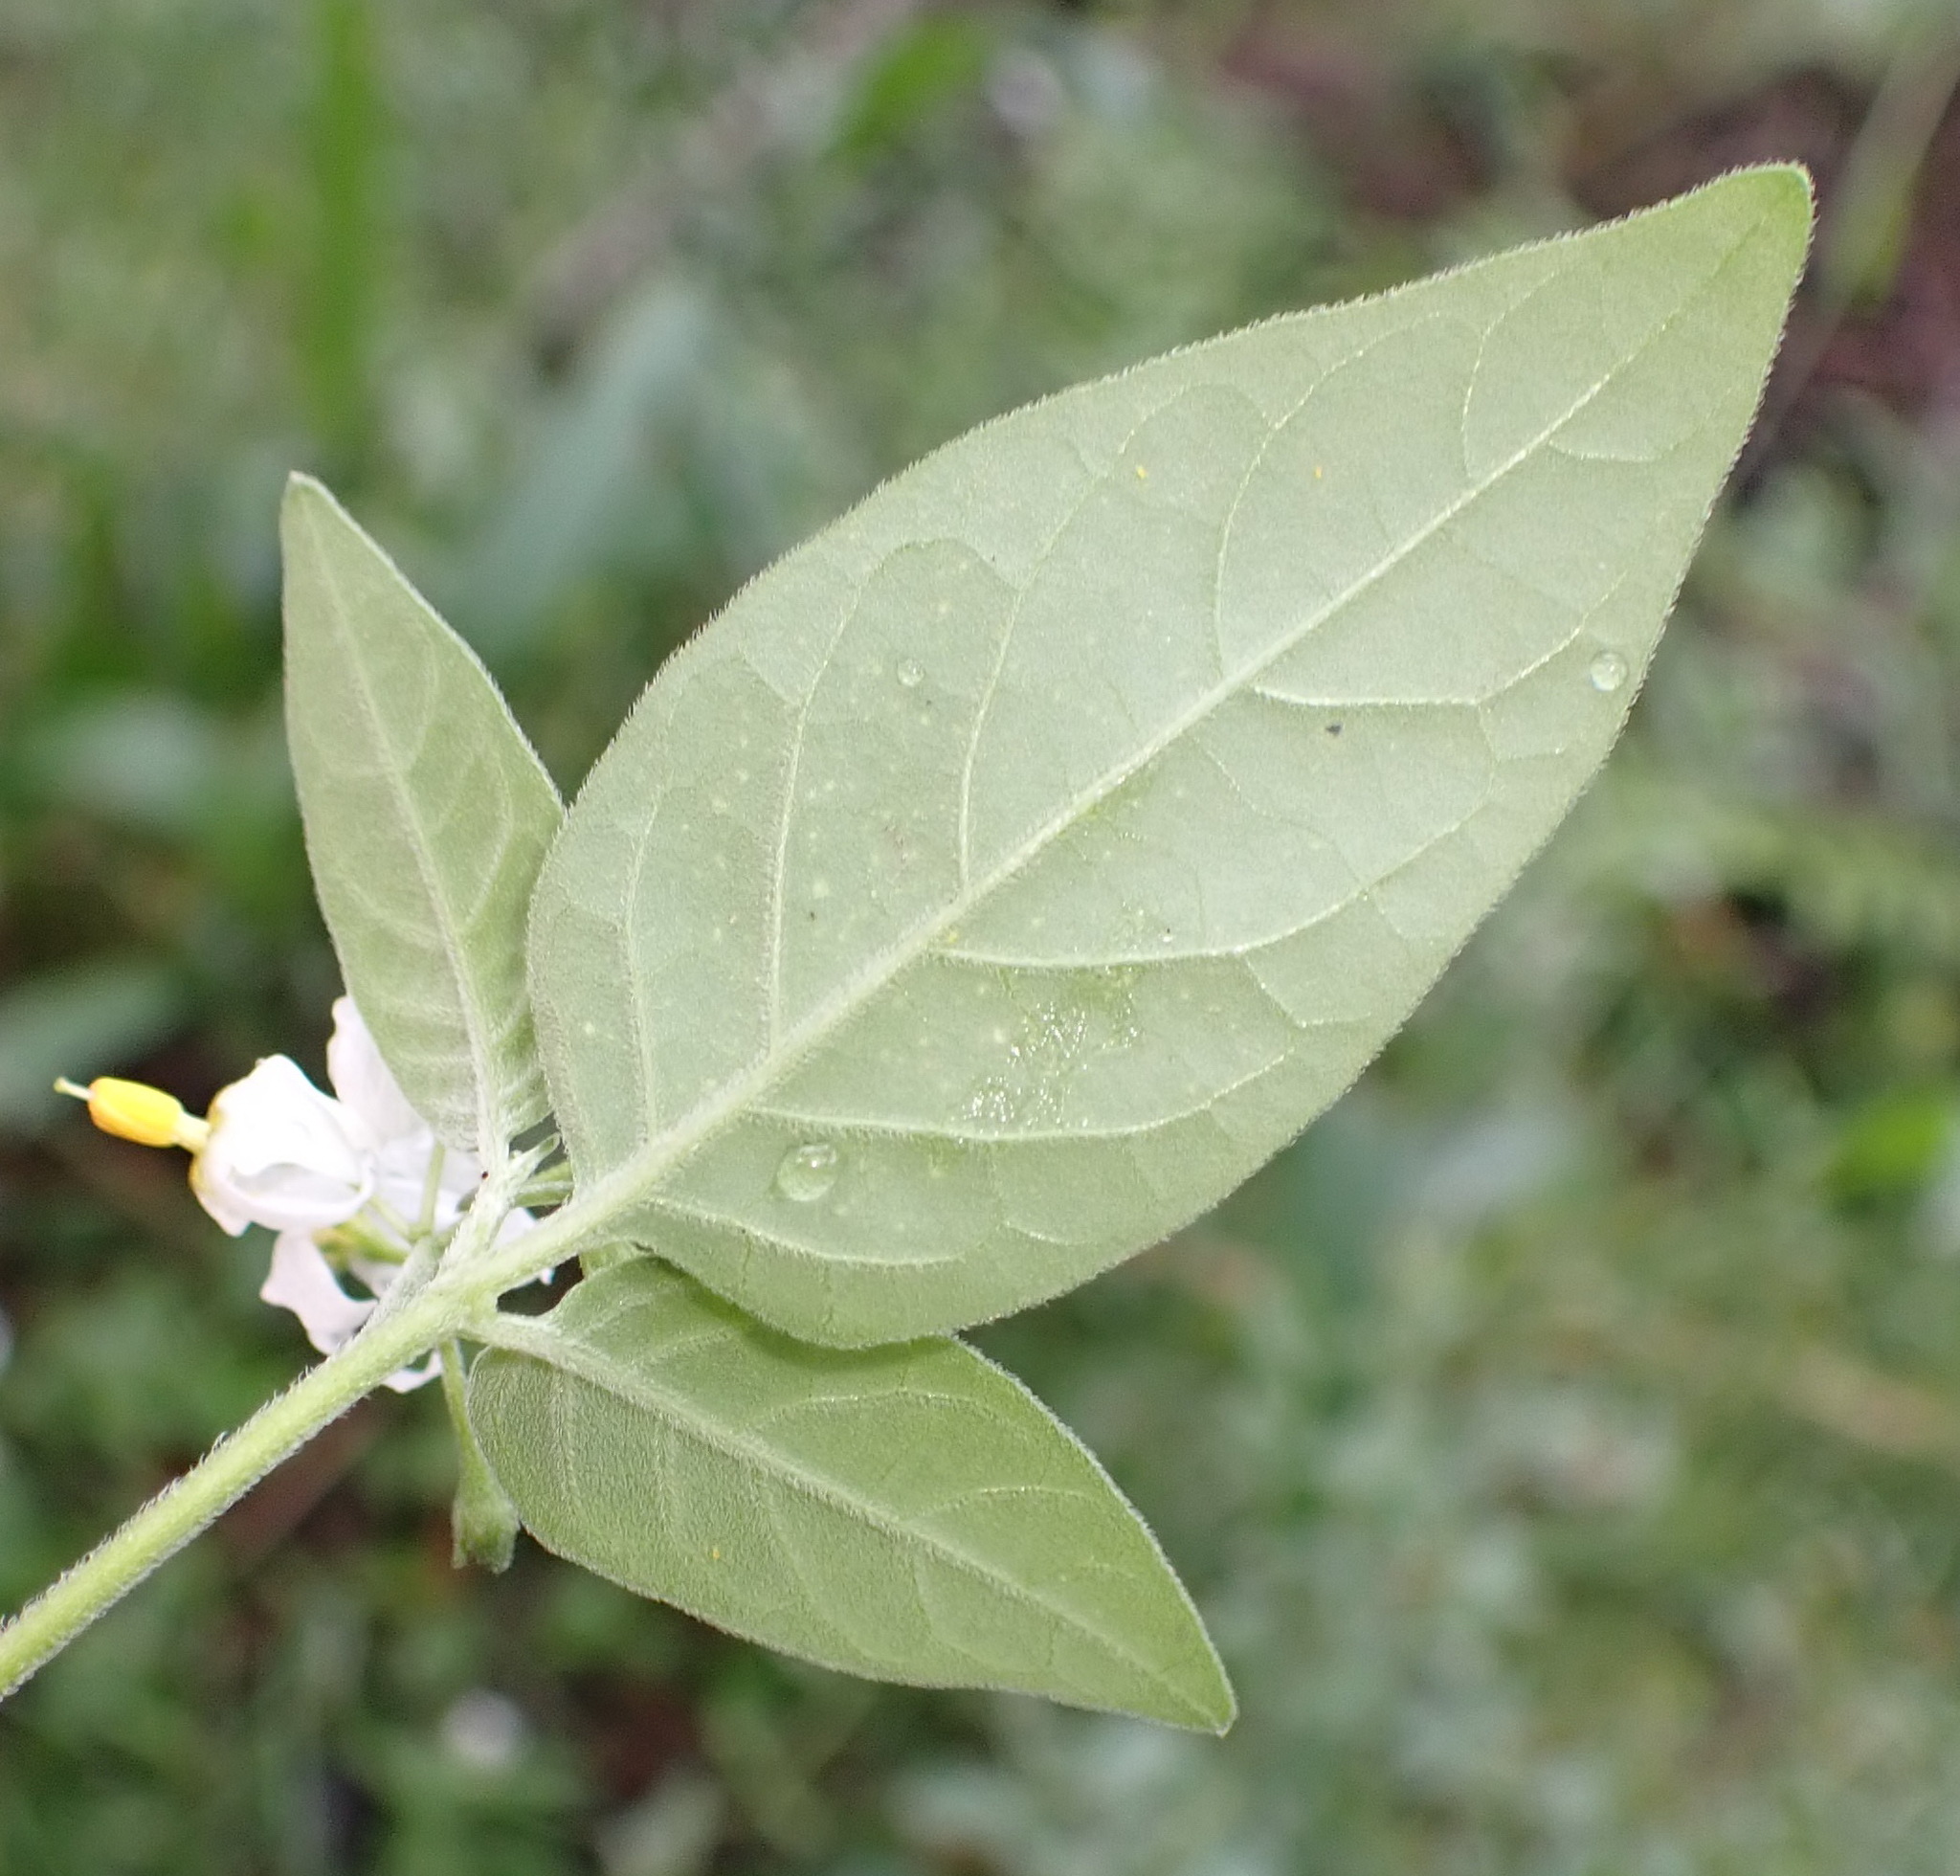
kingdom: Plantae
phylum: Tracheophyta
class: Magnoliopsida
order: Solanales
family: Solanaceae
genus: Solanum
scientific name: Solanum chenopodioides
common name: Tall nightshade
